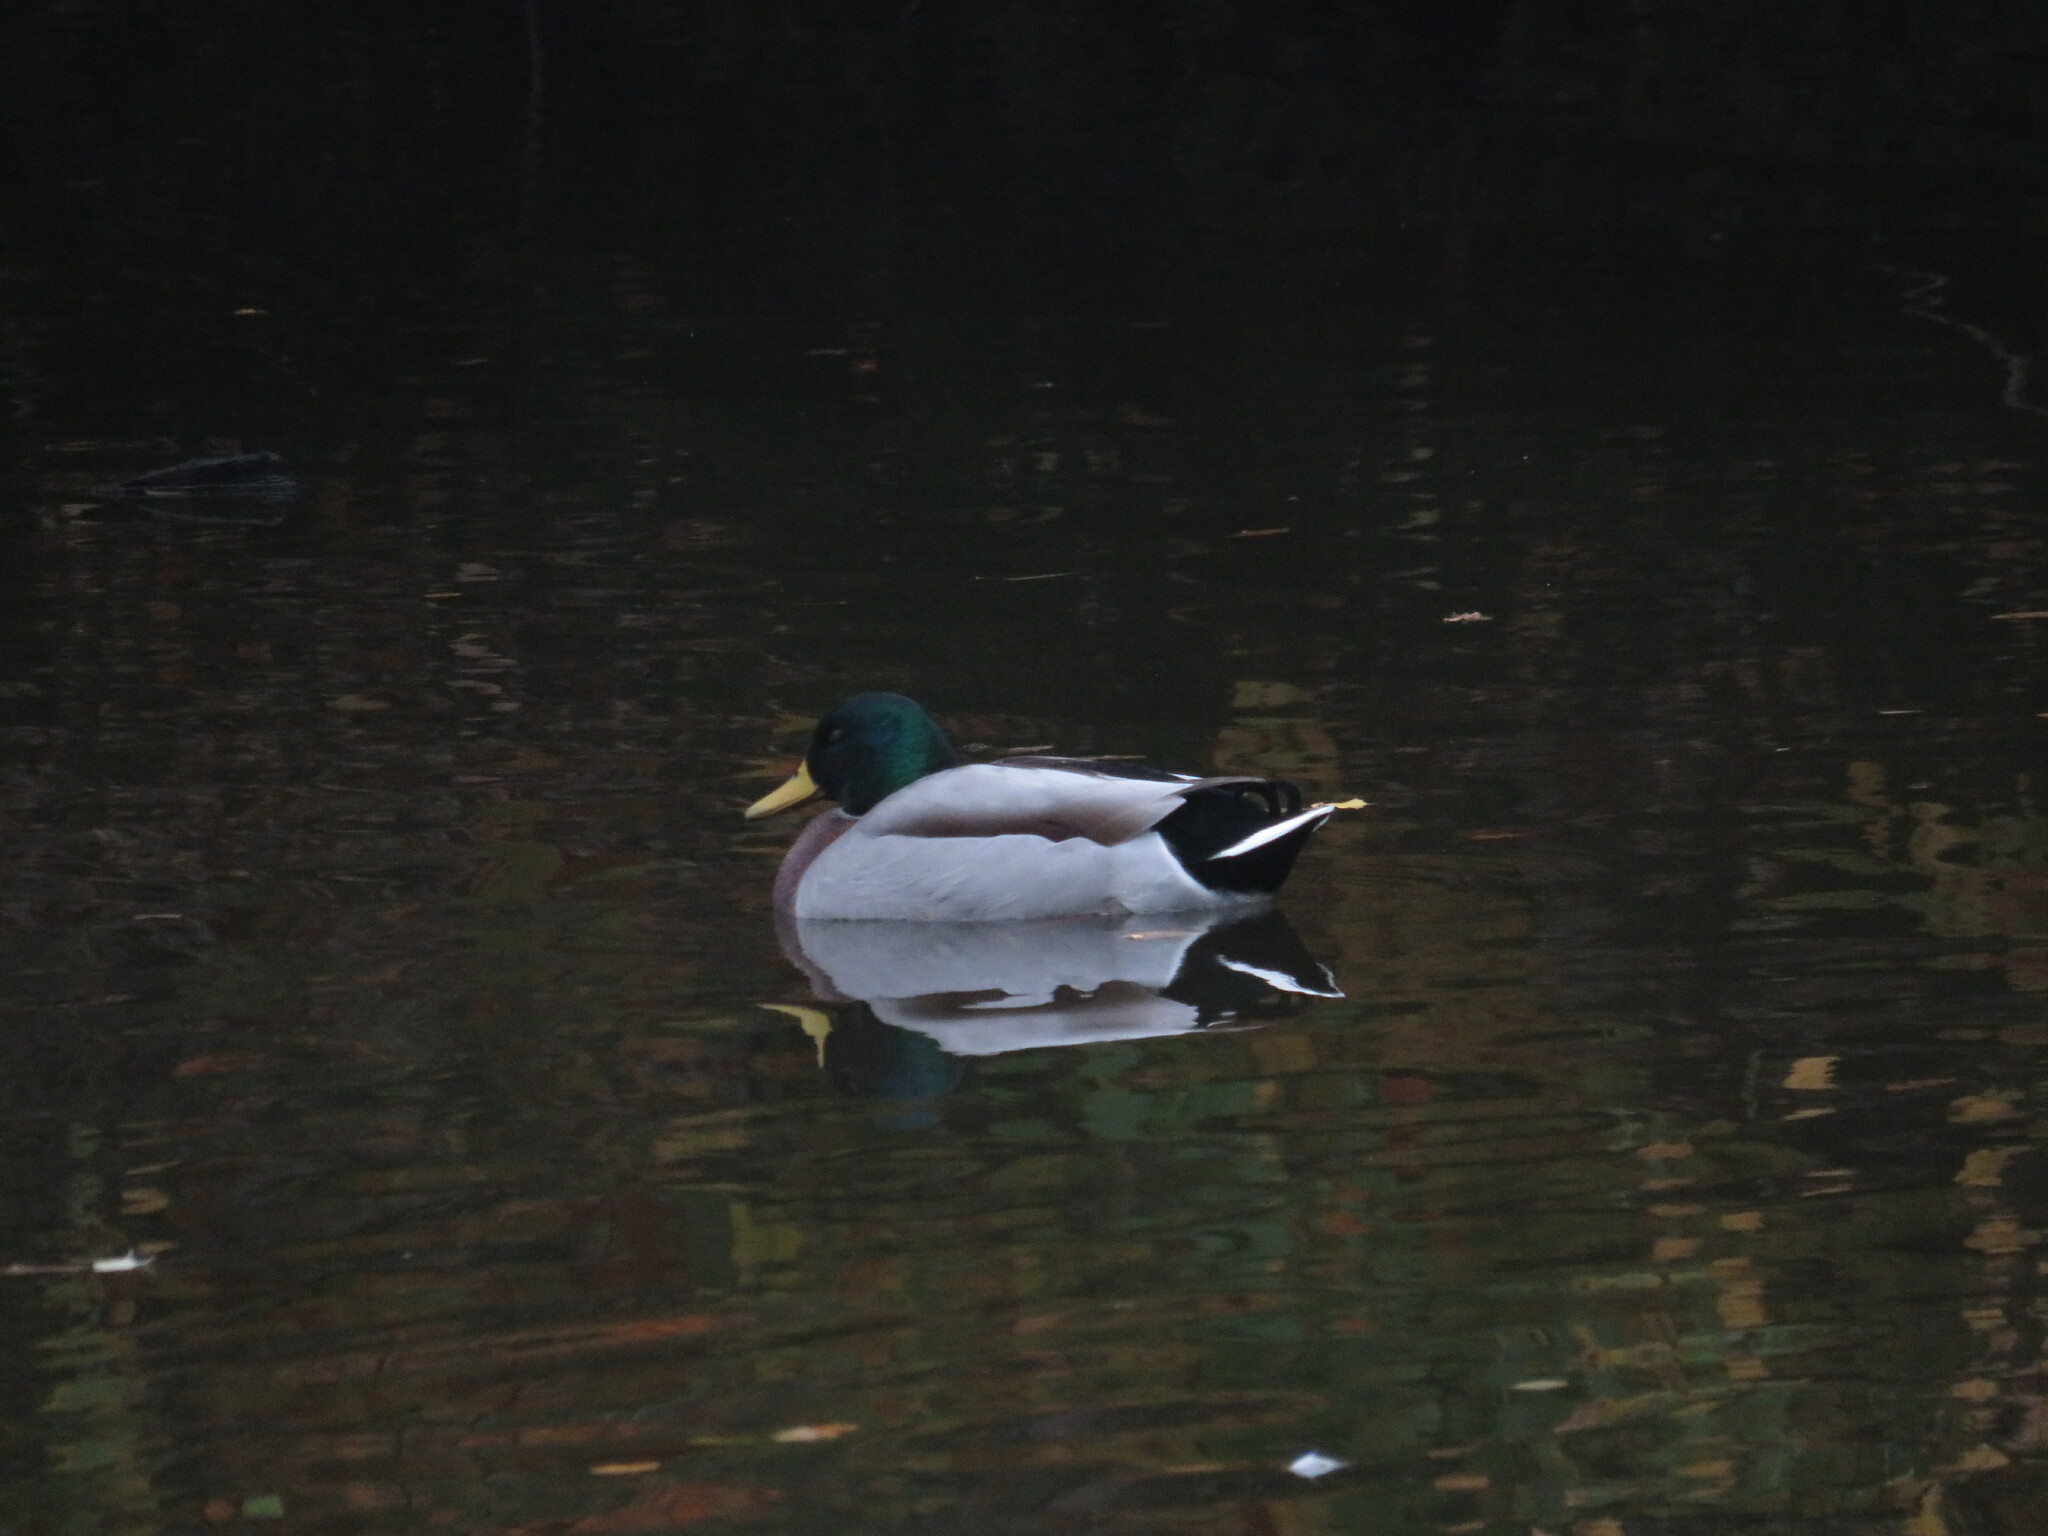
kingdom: Animalia
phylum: Chordata
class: Aves
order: Anseriformes
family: Anatidae
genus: Anas
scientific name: Anas platyrhynchos
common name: Mallard
